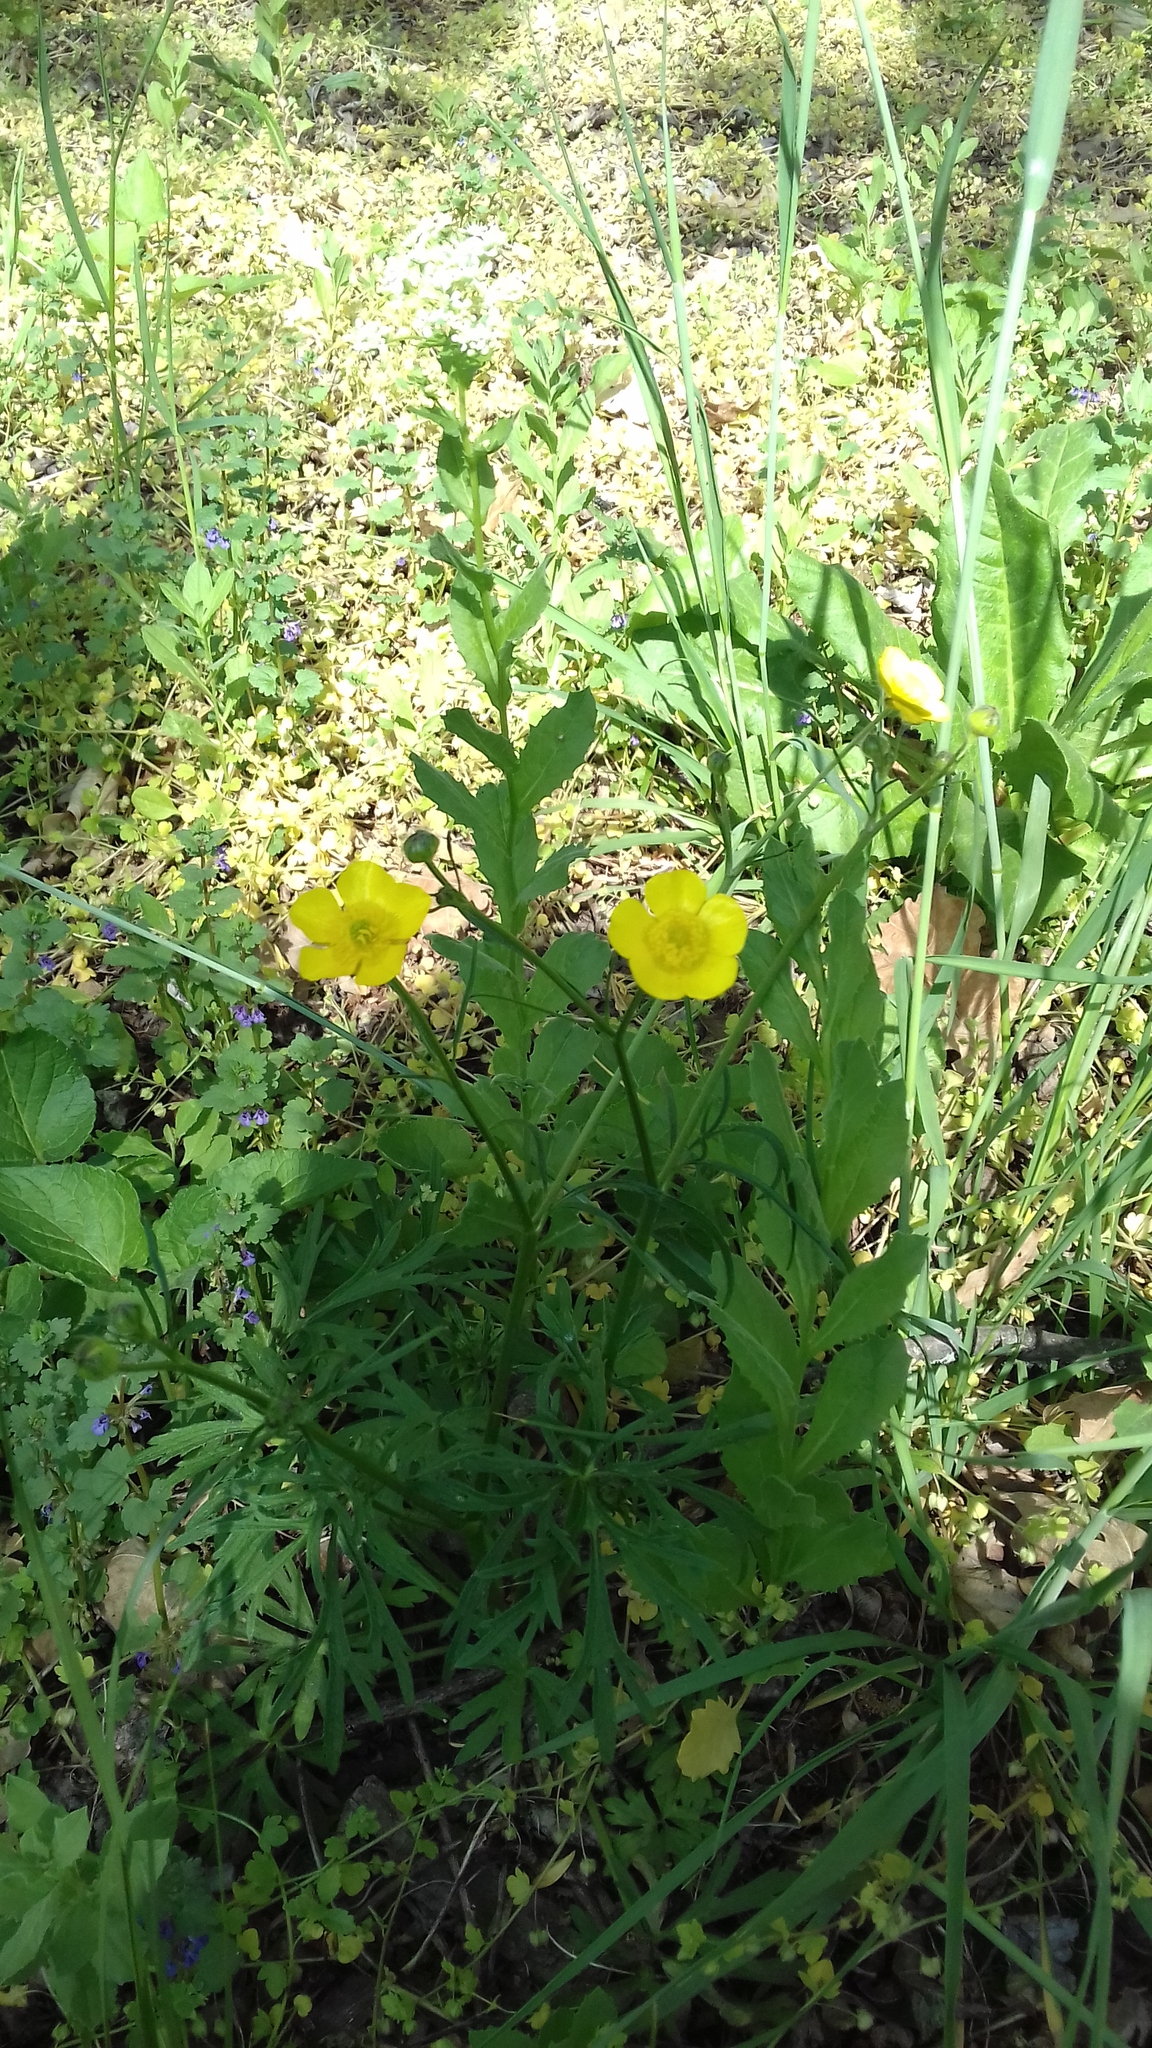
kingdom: Plantae
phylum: Tracheophyta
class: Magnoliopsida
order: Ranunculales
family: Ranunculaceae
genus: Ranunculus
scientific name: Ranunculus polyanthemos
